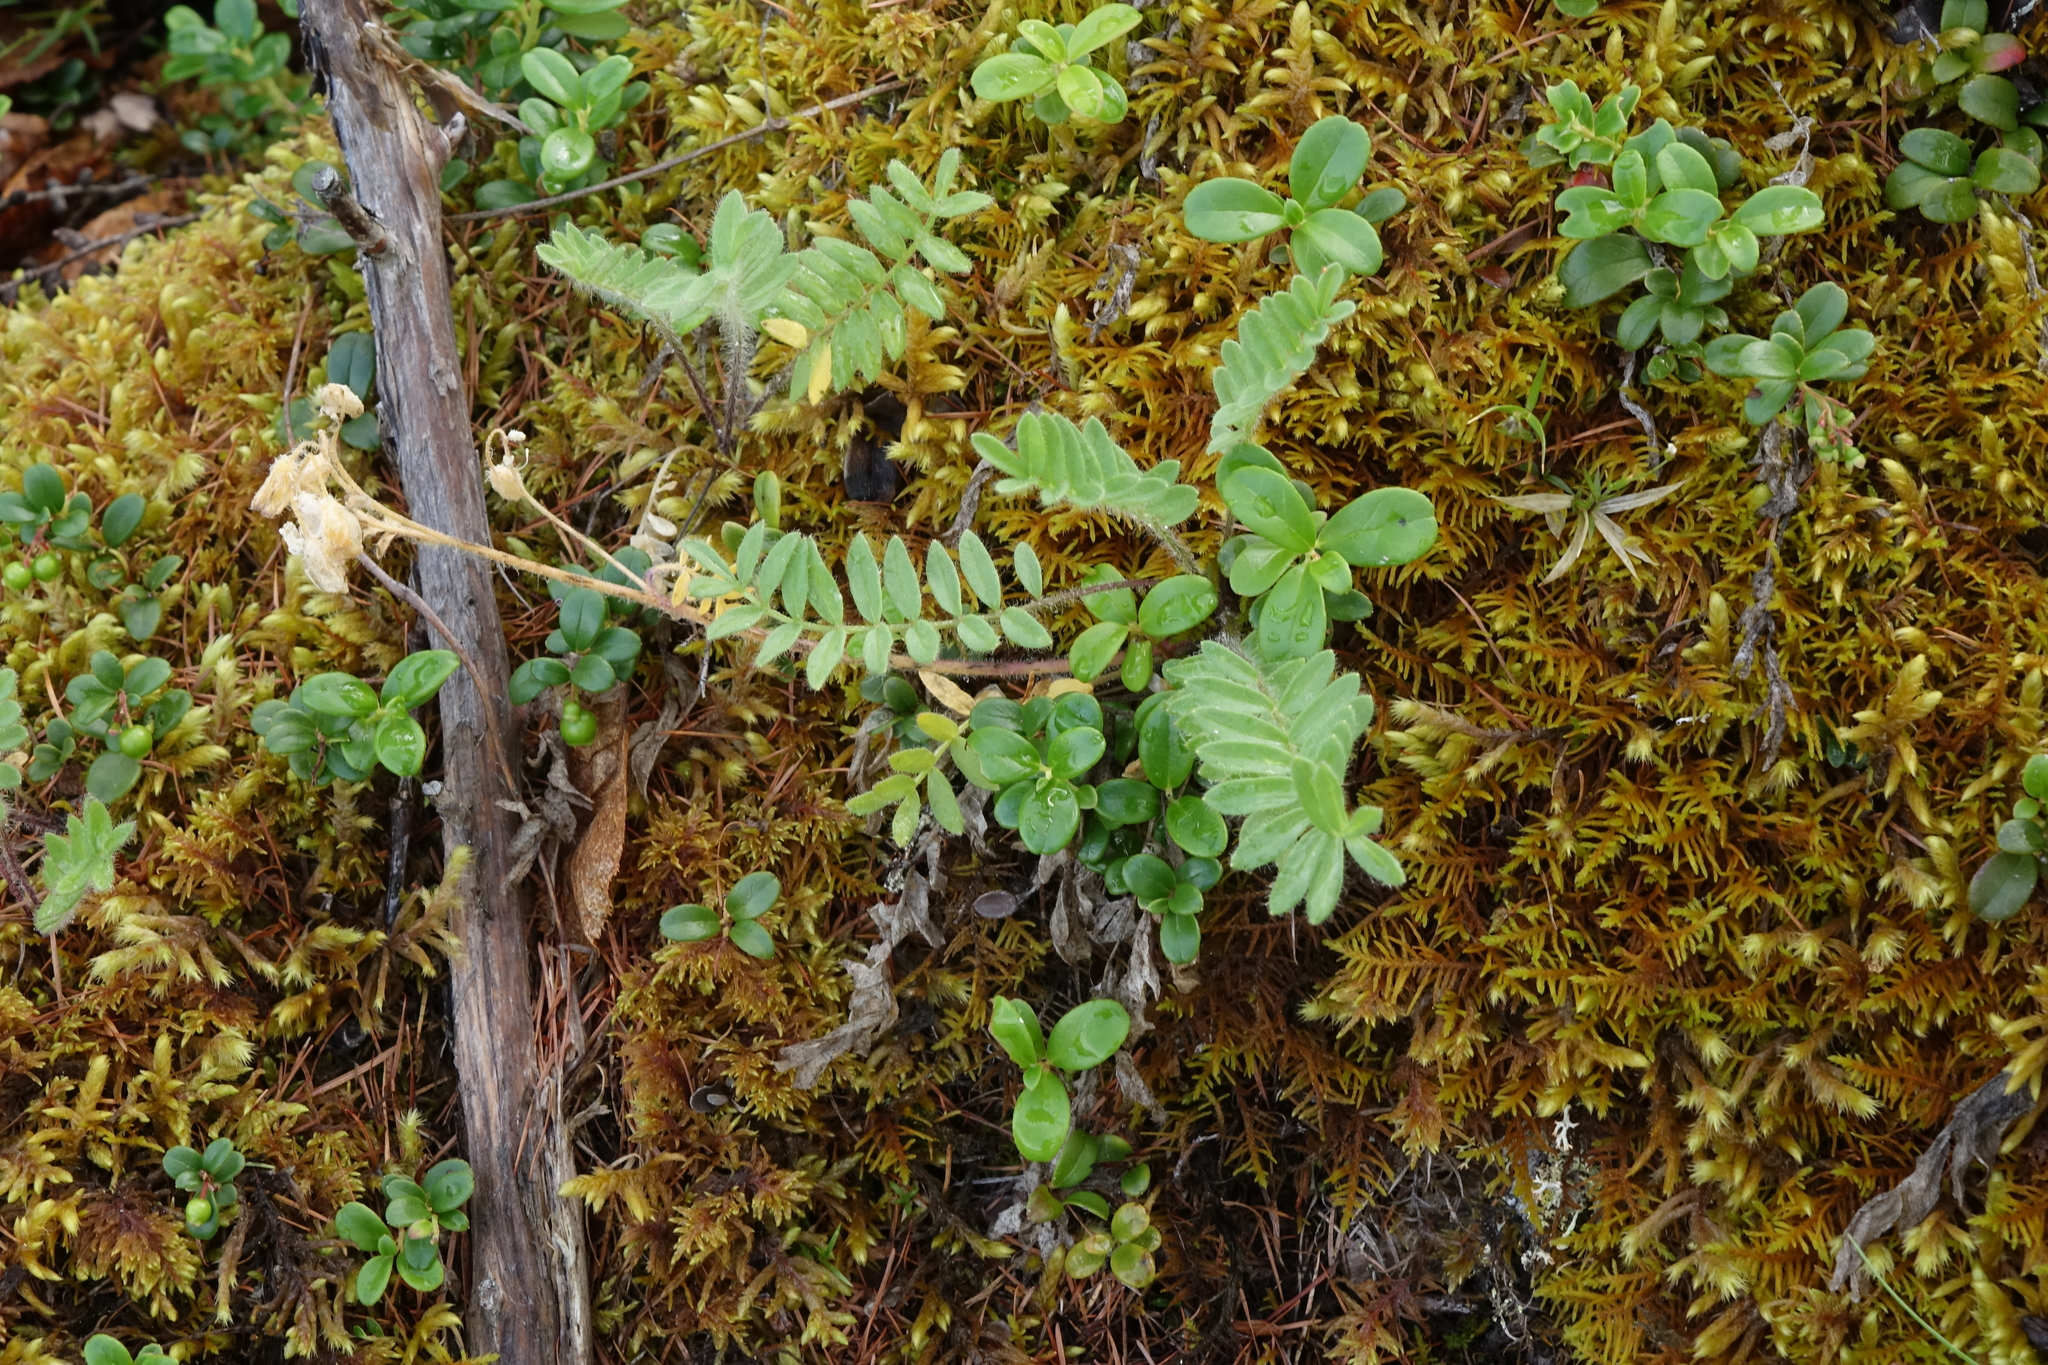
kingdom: Plantae
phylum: Tracheophyta
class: Magnoliopsida
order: Ericales
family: Polemoniaceae
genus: Polemonium
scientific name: Polemonium boreale
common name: Boreal jacob's-ladder
